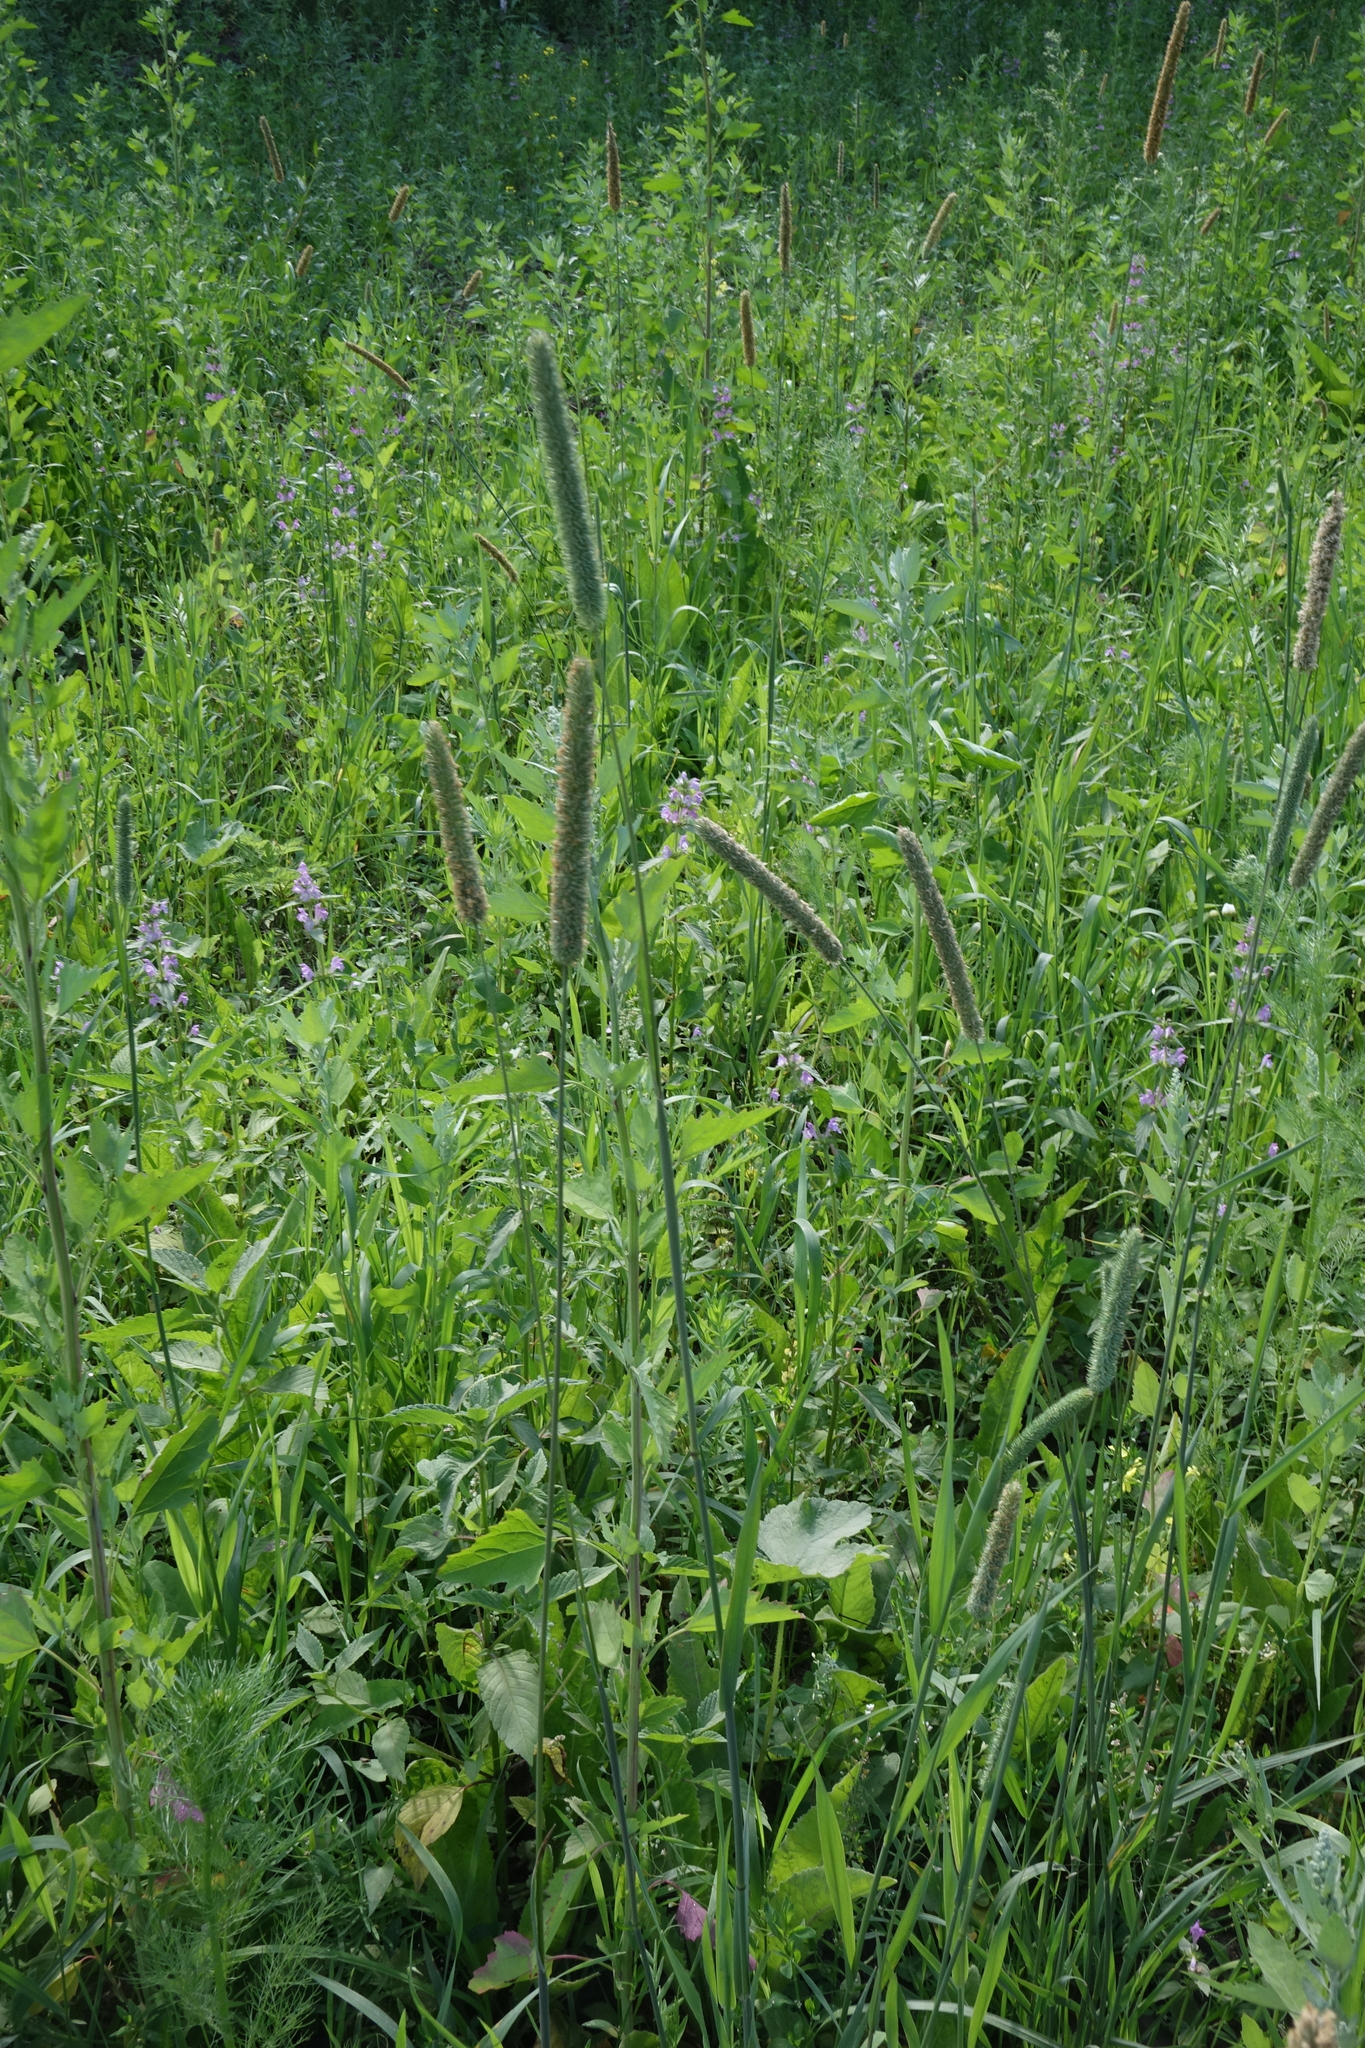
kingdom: Plantae
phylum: Tracheophyta
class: Liliopsida
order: Poales
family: Poaceae
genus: Phleum
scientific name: Phleum pratense
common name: Timothy grass
